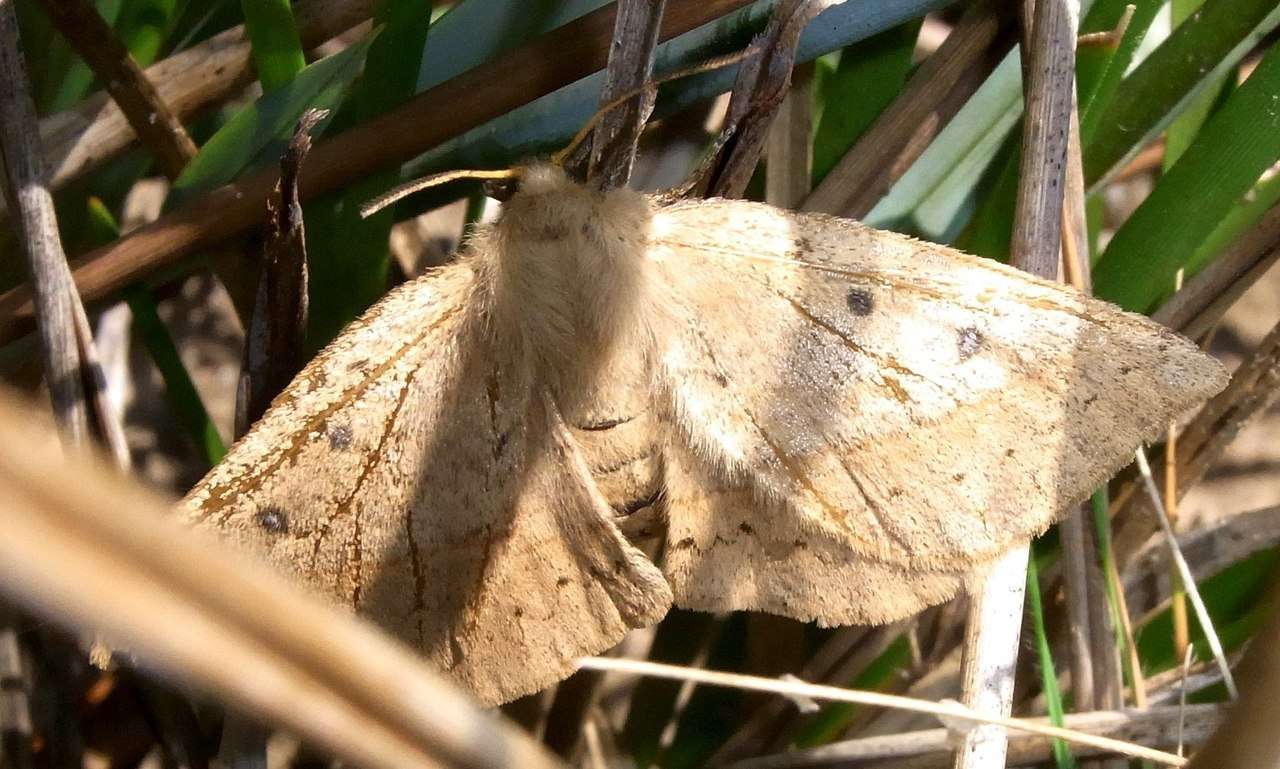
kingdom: Animalia
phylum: Arthropoda
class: Insecta
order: Lepidoptera
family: Anthelidae
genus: Anthela
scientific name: Anthela acuta
